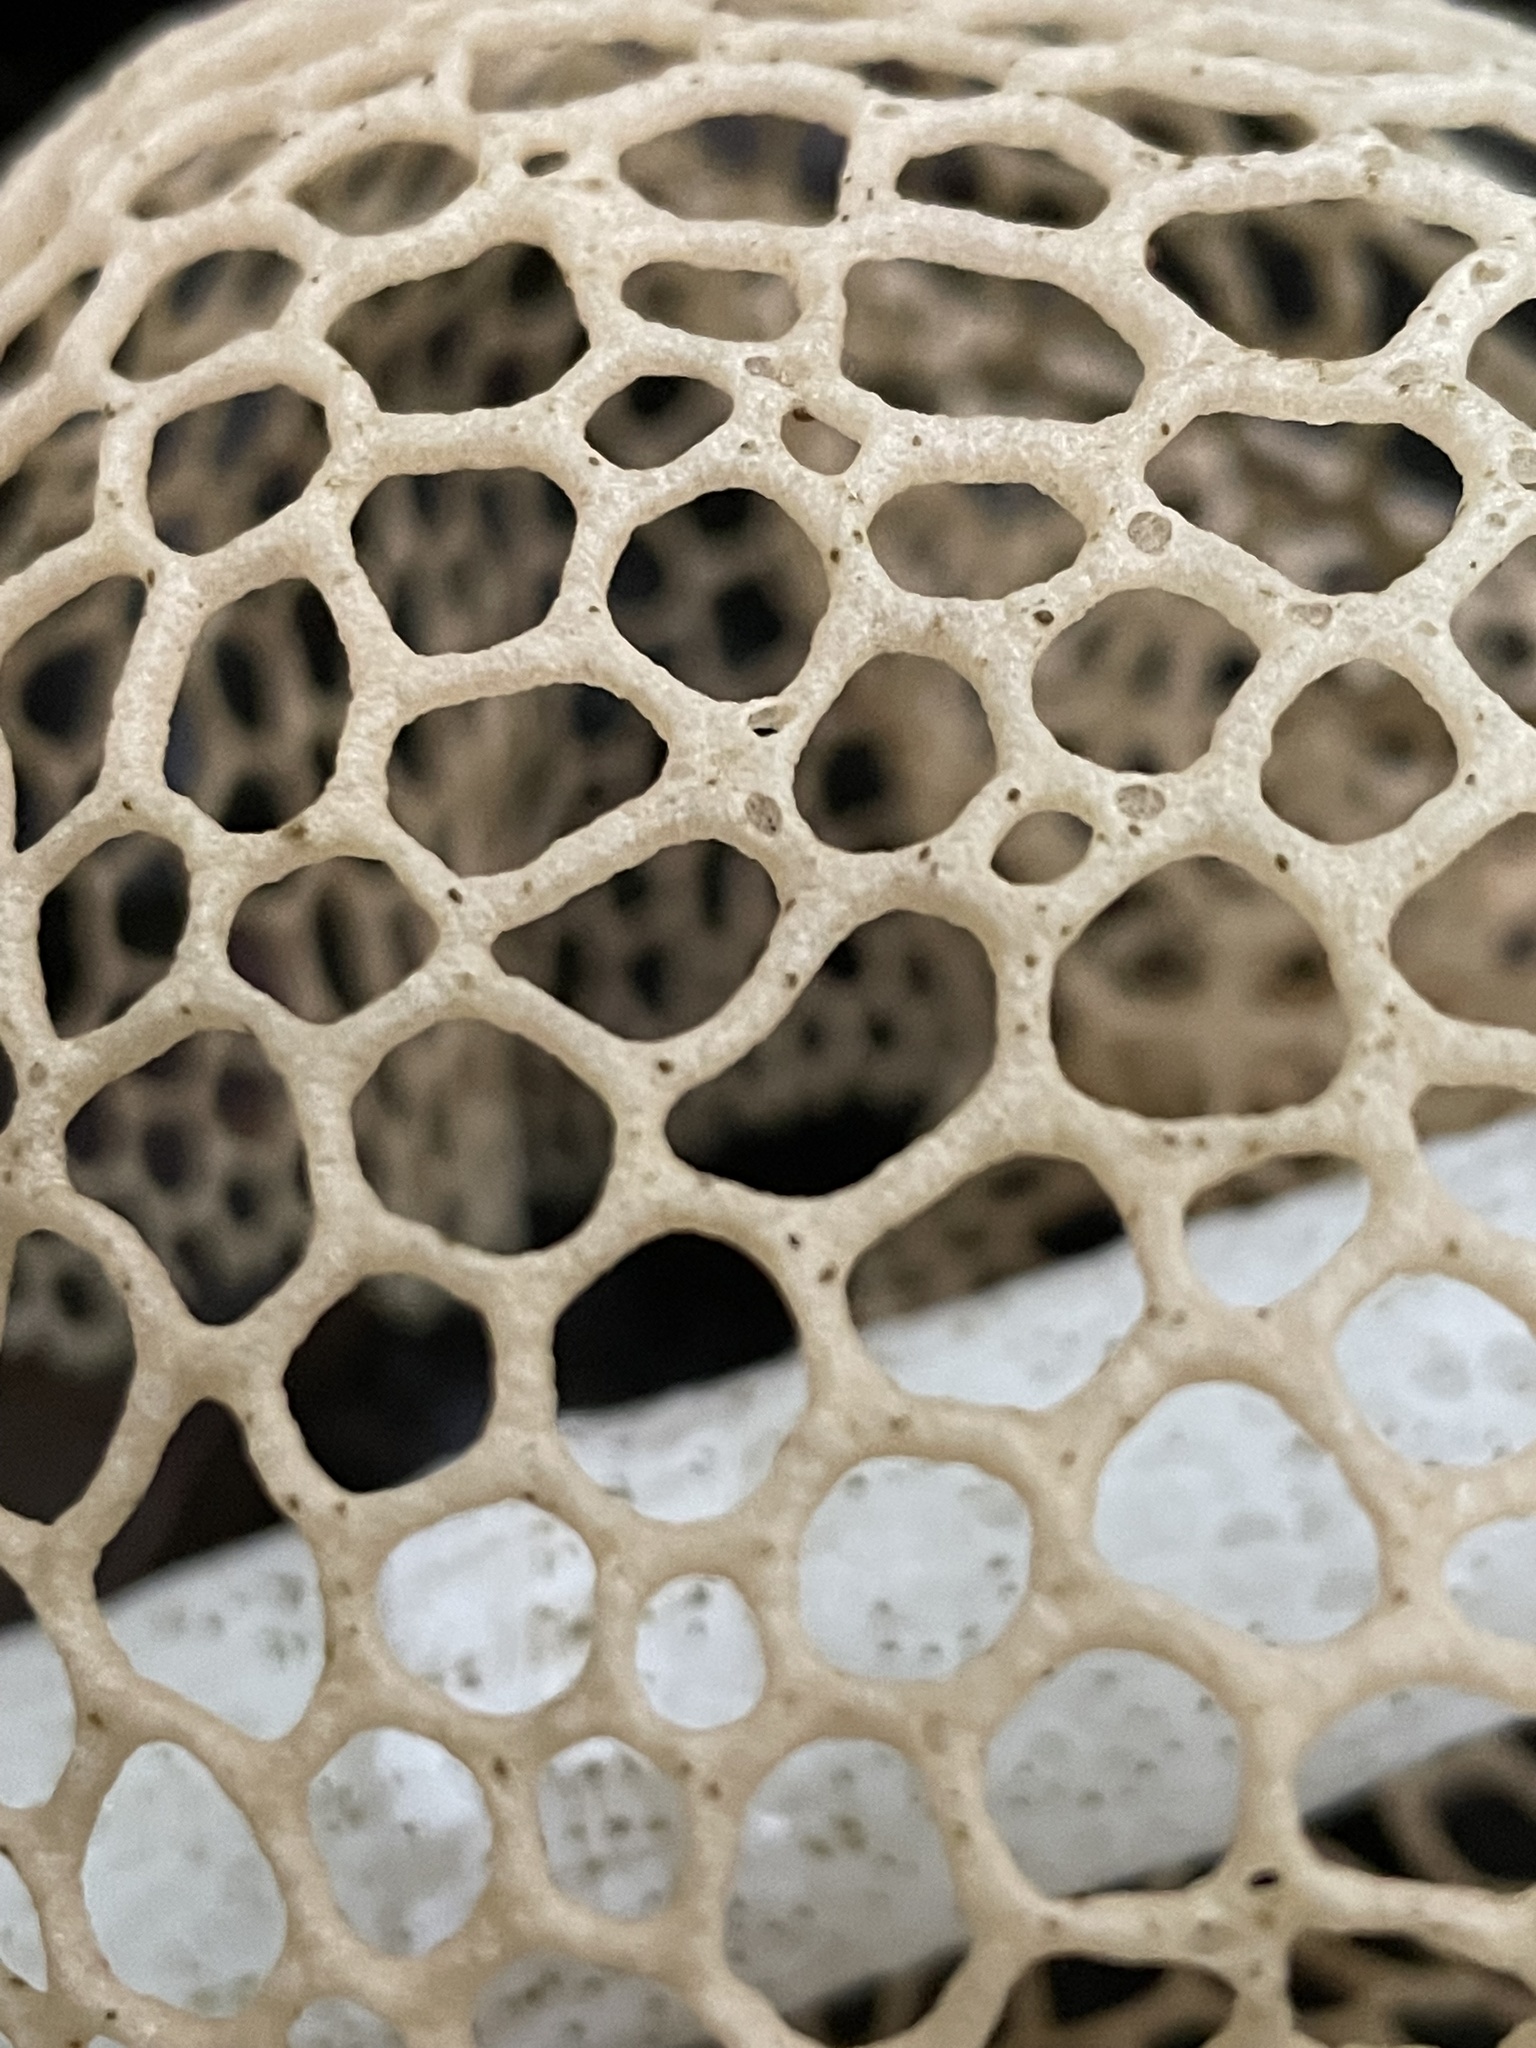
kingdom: Fungi
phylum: Basidiomycota
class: Agaricomycetes
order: Phallales
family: Phallaceae
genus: Phallus
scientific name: Phallus lutescens
